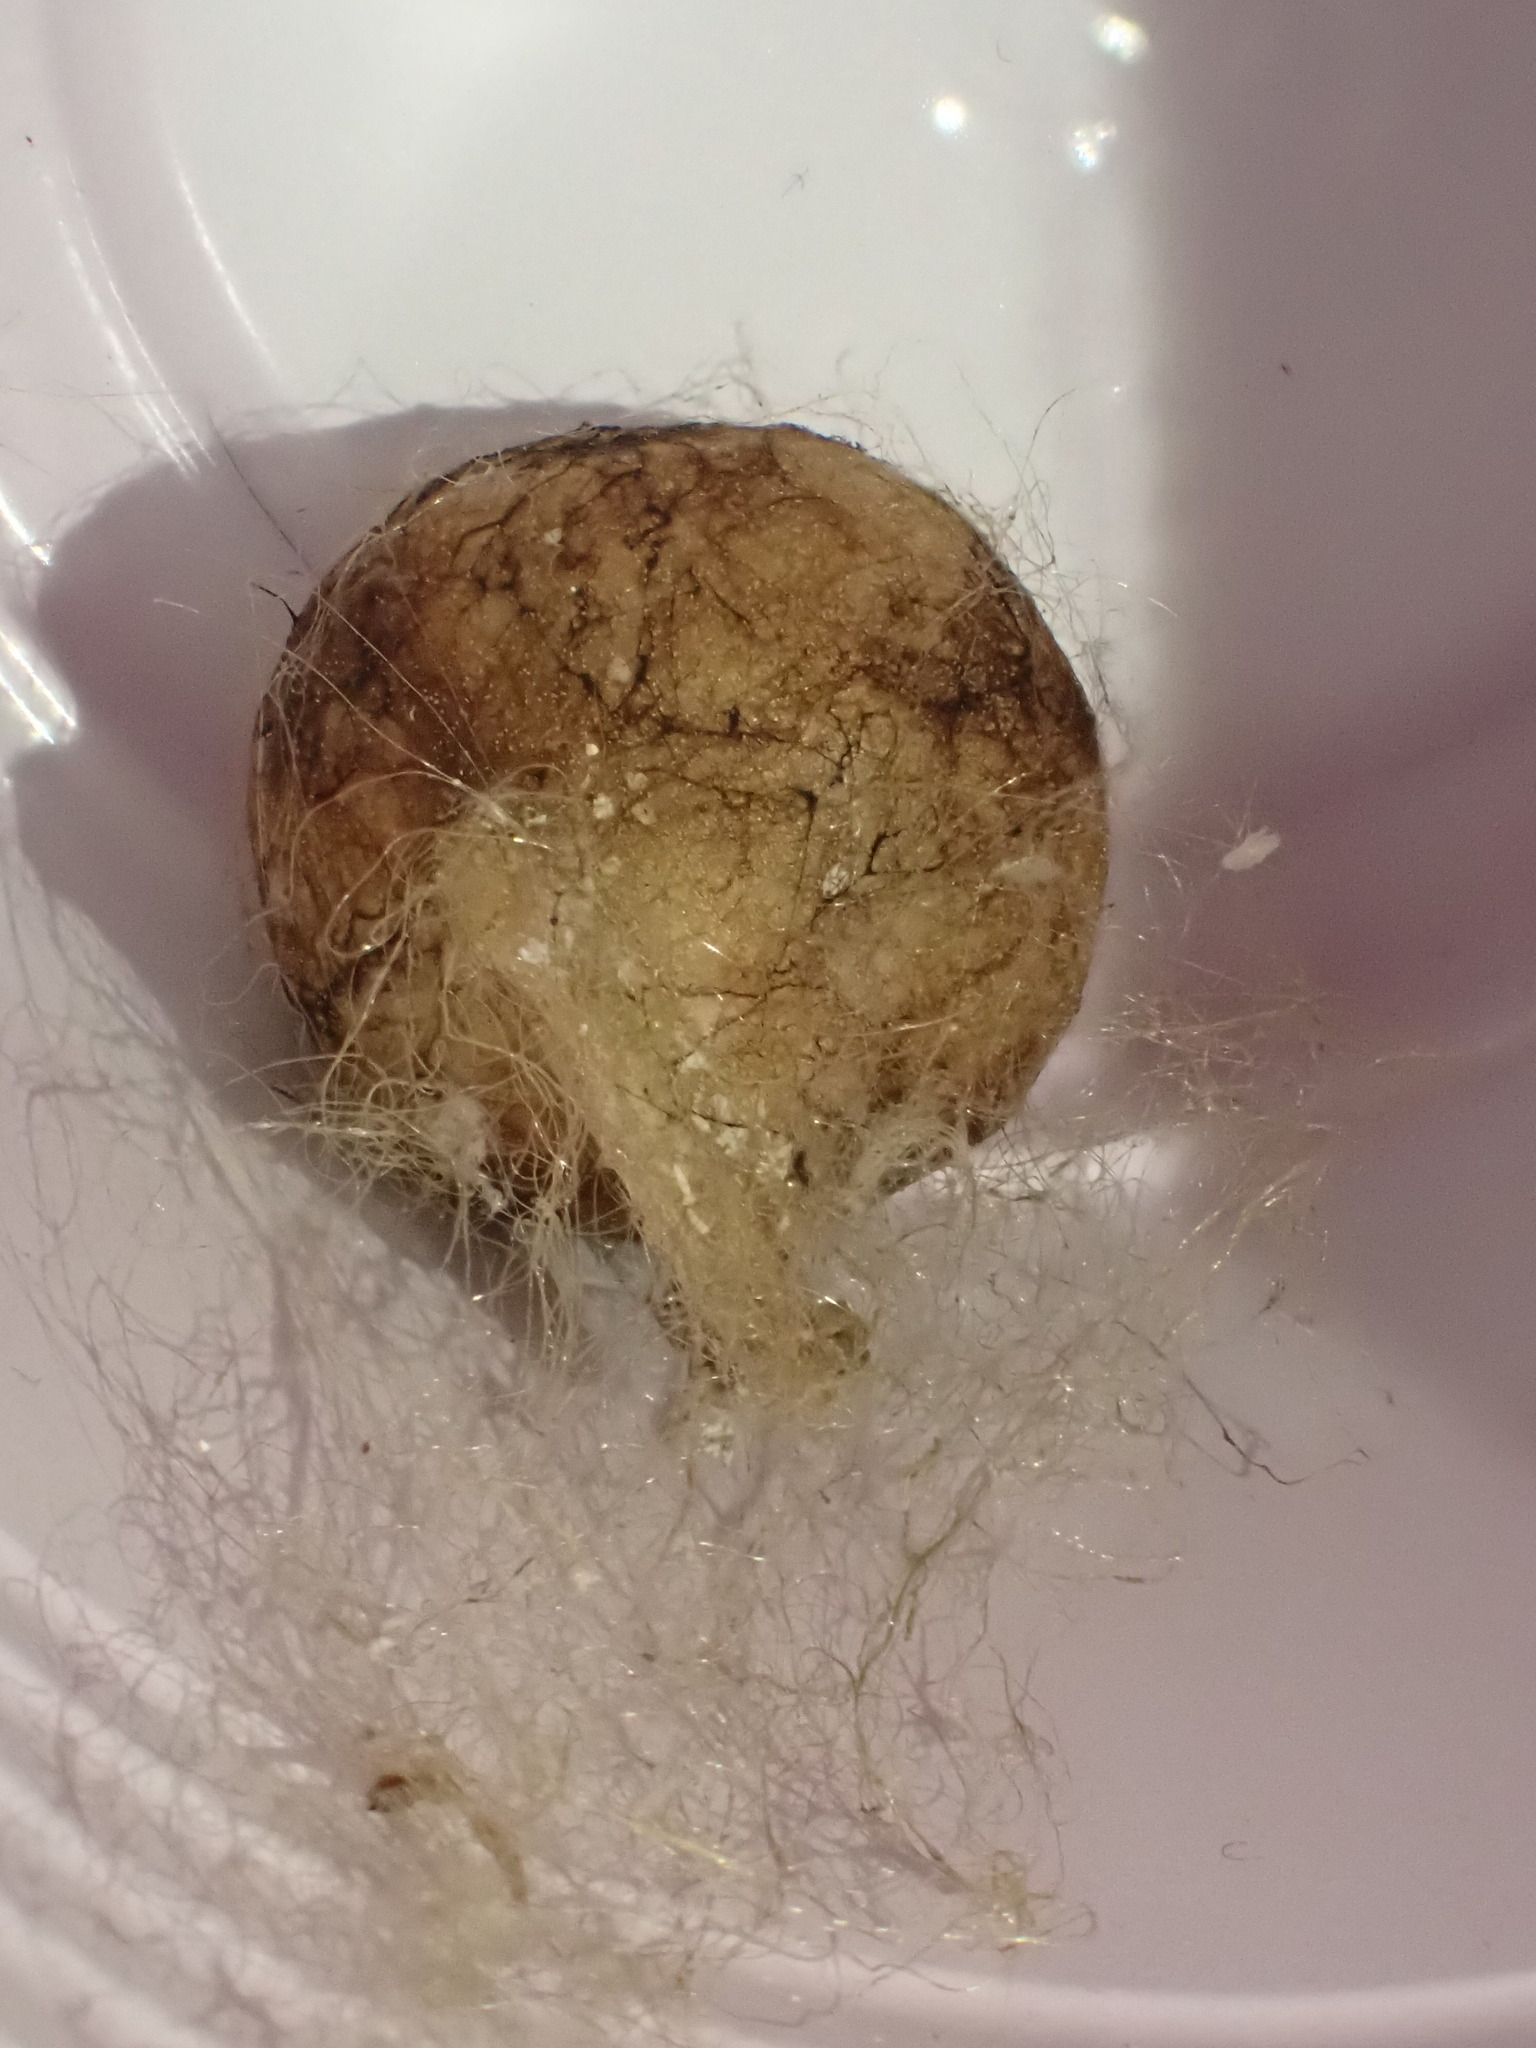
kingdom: Animalia
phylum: Arthropoda
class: Arachnida
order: Araneae
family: Araneidae
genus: Argiope
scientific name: Argiope aurantia
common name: Orb weavers
